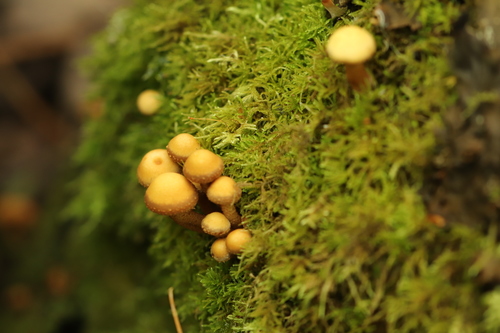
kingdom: Fungi
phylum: Basidiomycota
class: Agaricomycetes
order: Agaricales
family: Strophariaceae
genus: Kuehneromyces
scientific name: Kuehneromyces mutabilis
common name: Sheathed woodtuft
